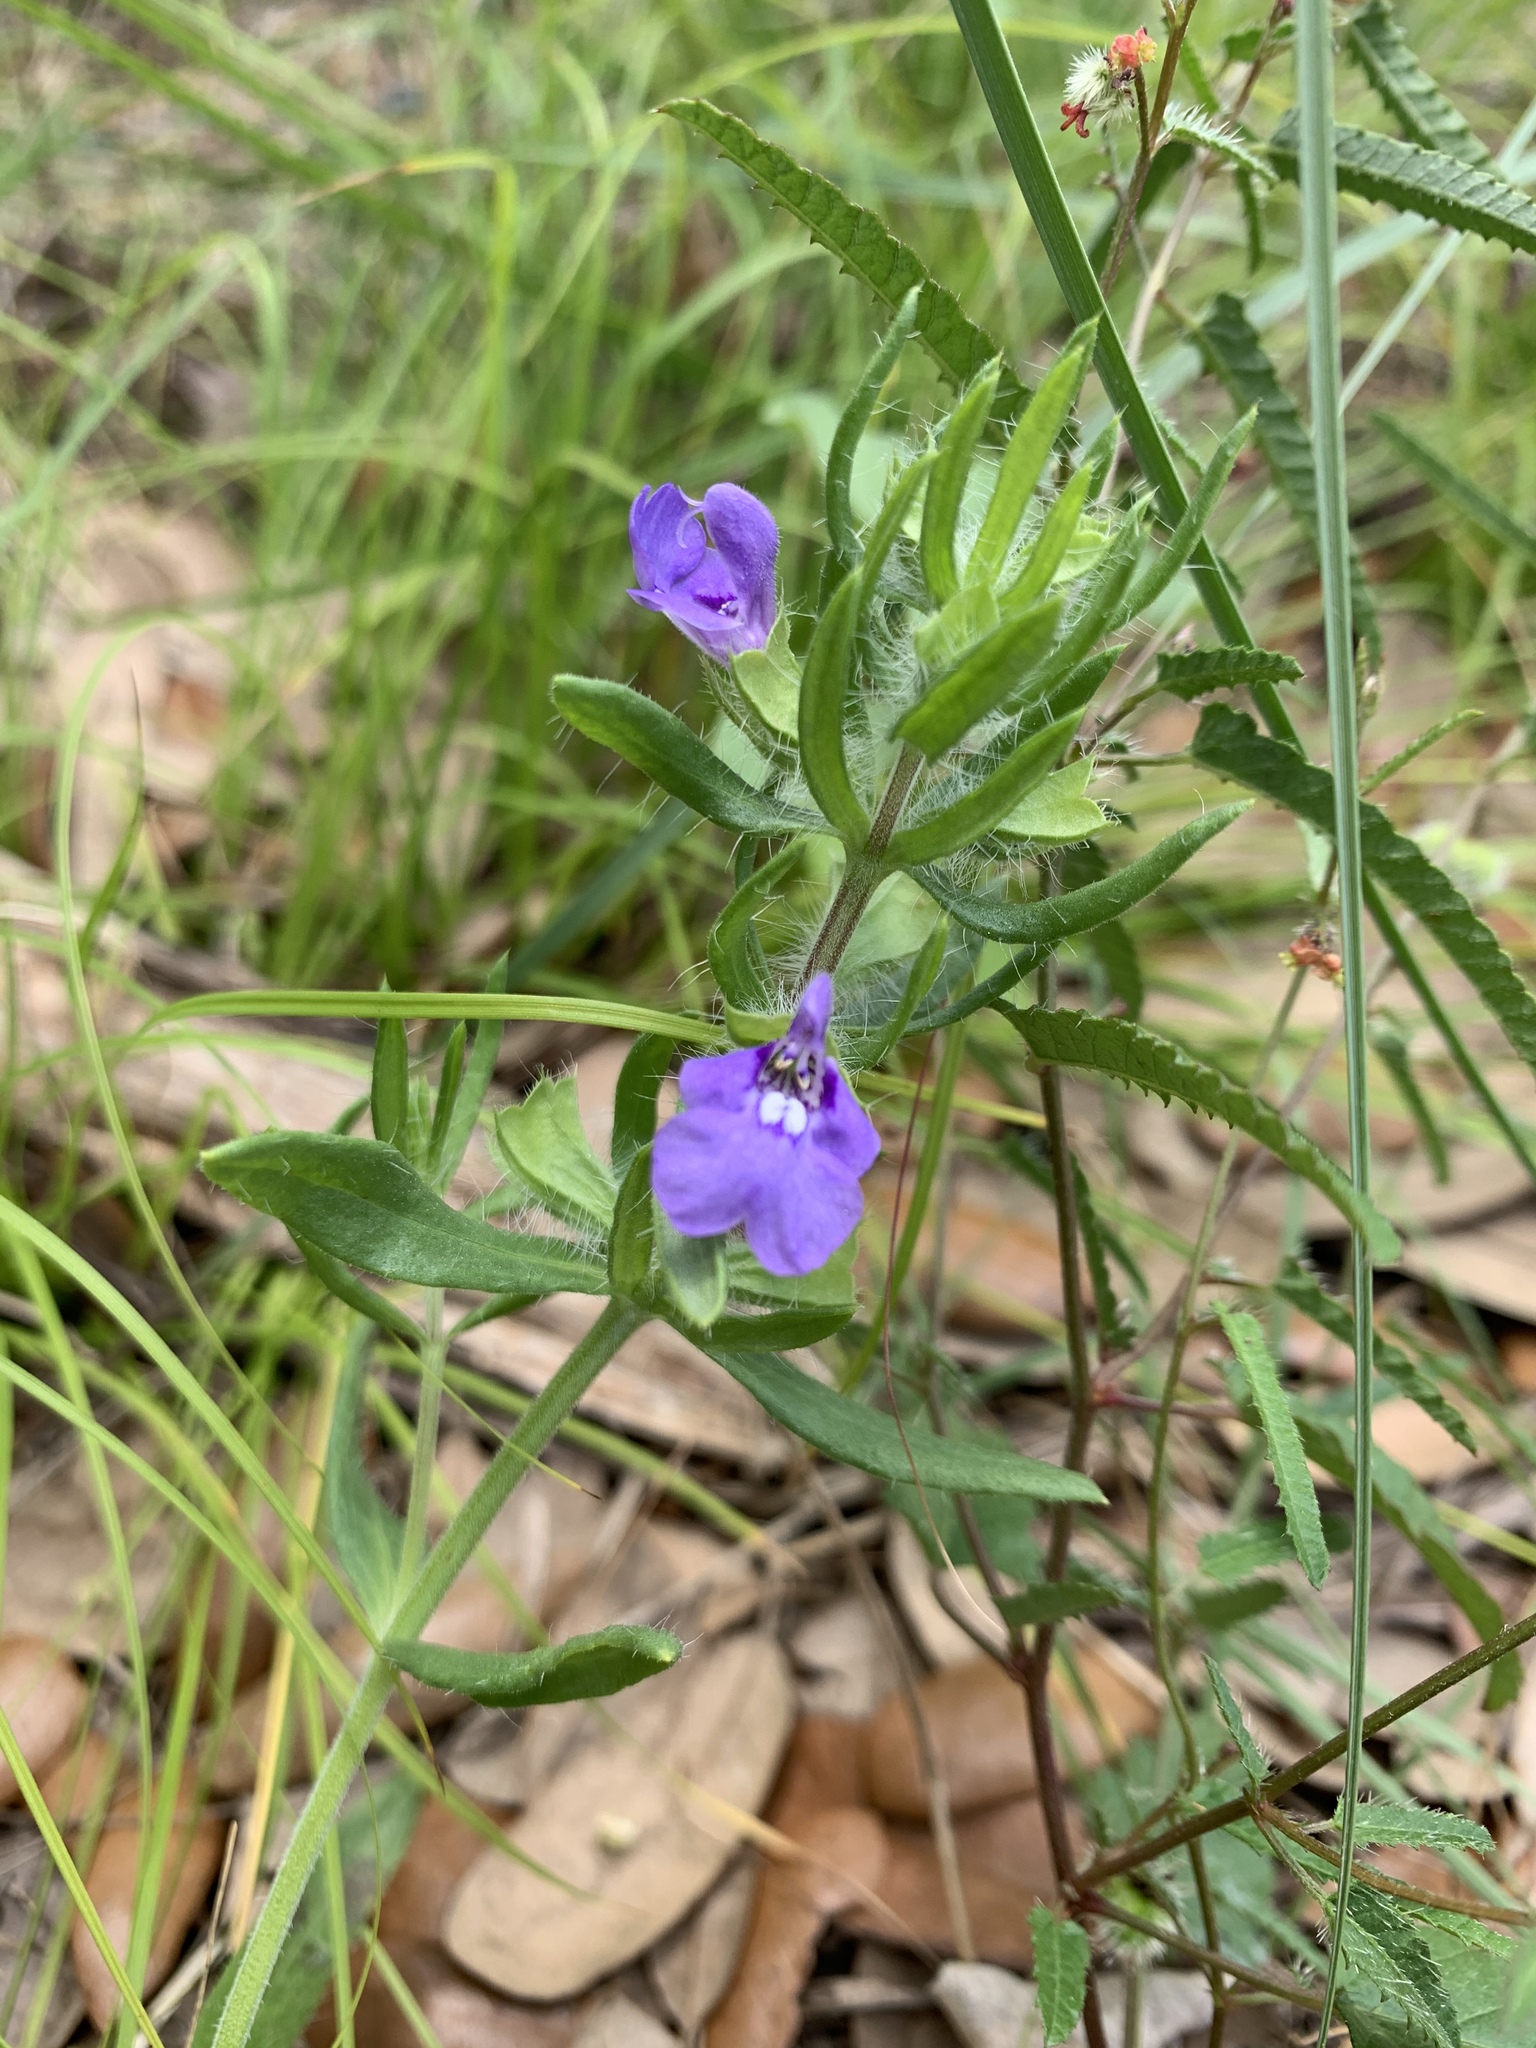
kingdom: Plantae
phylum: Tracheophyta
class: Magnoliopsida
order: Lamiales
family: Lamiaceae
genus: Salvia
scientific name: Salvia texana
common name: Texas sage
